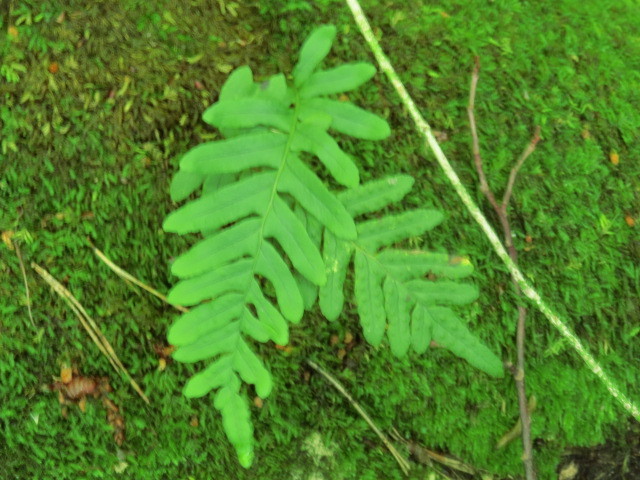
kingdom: Plantae
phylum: Tracheophyta
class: Polypodiopsida
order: Polypodiales
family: Polypodiaceae
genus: Polypodium
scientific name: Polypodium vulgare
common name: Common polypody
